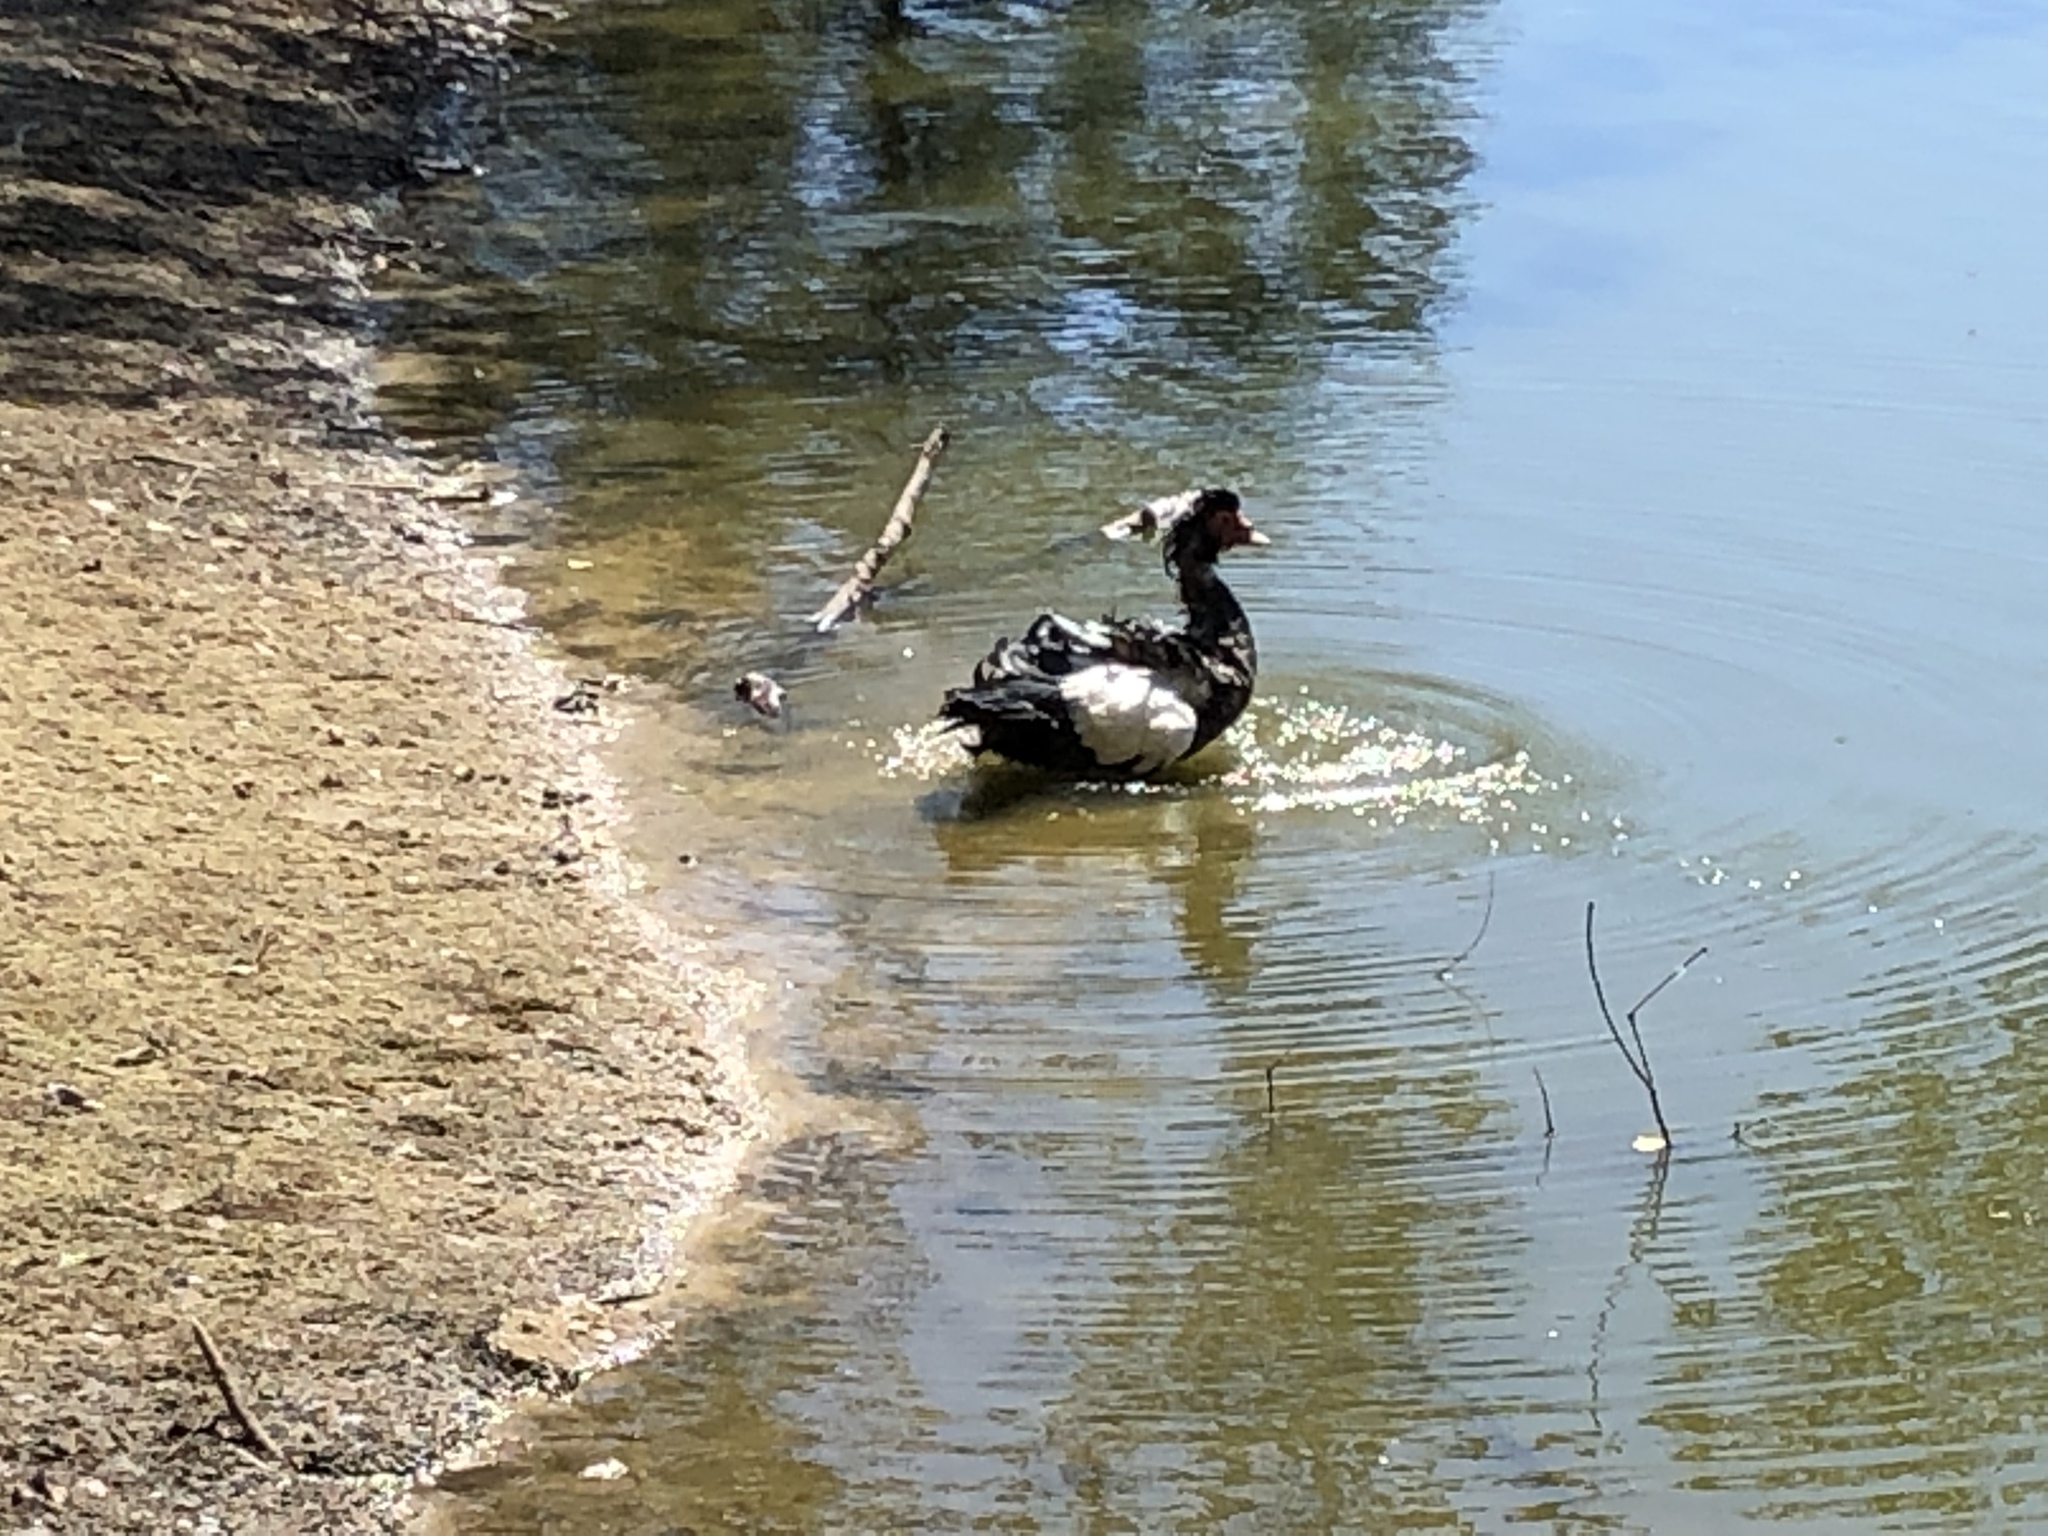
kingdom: Animalia
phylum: Chordata
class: Aves
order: Anseriformes
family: Anatidae
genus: Cairina
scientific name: Cairina moschata
